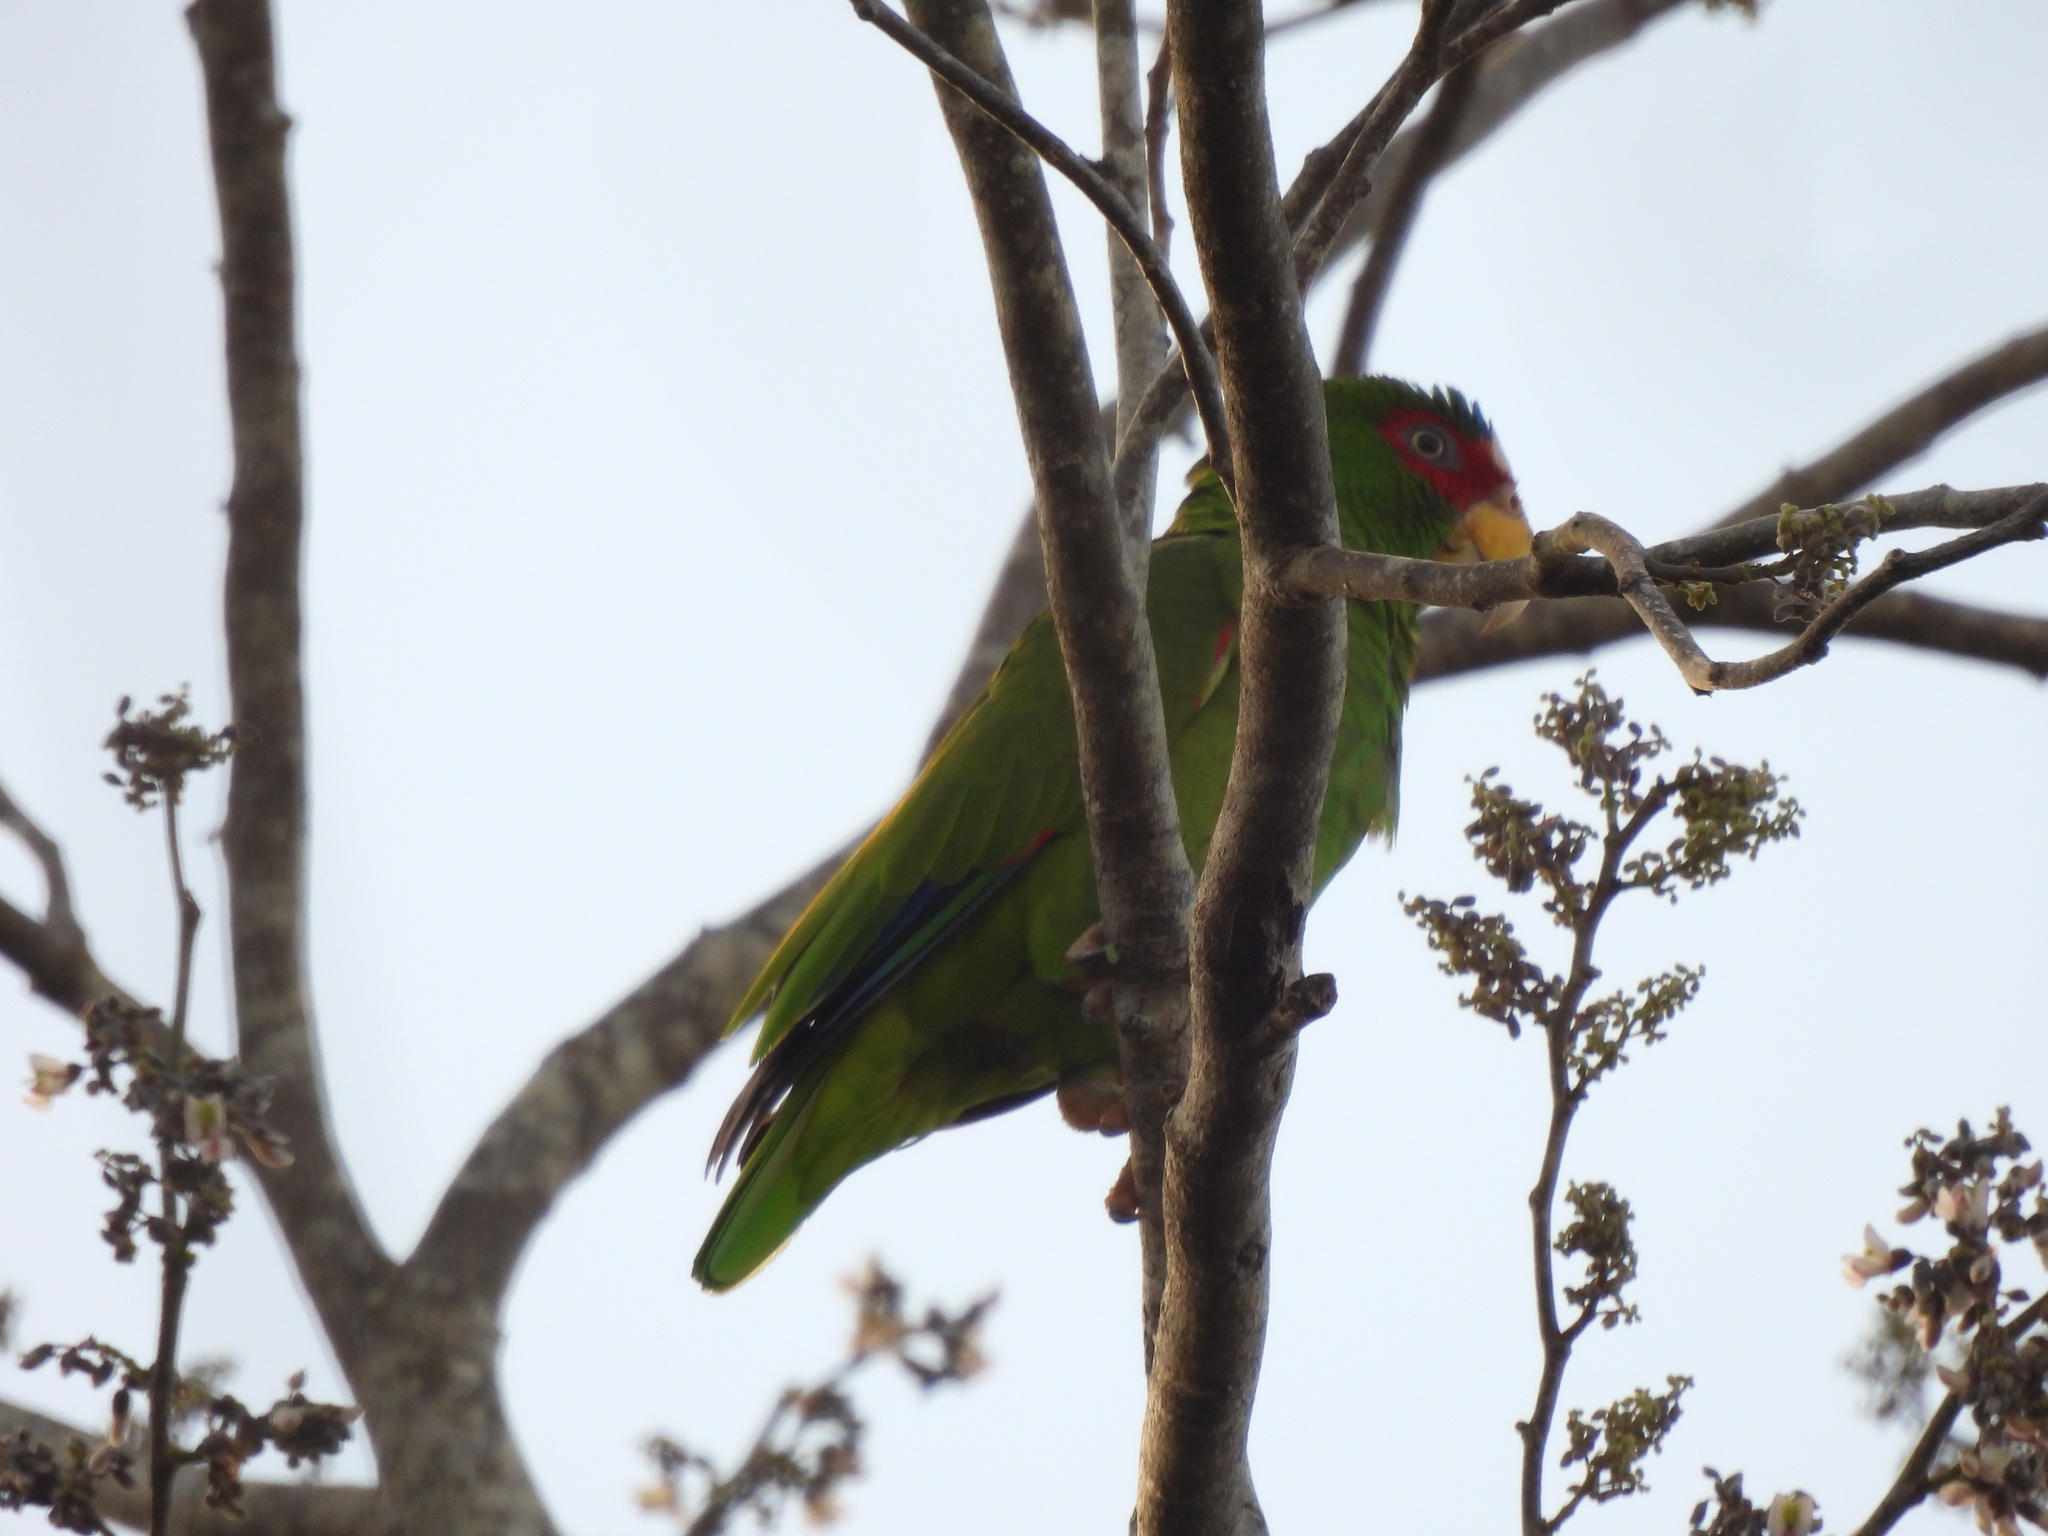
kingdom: Animalia
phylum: Chordata
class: Aves
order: Psittaciformes
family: Psittacidae
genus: Amazona
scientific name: Amazona albifrons
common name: White-fronted amazon
